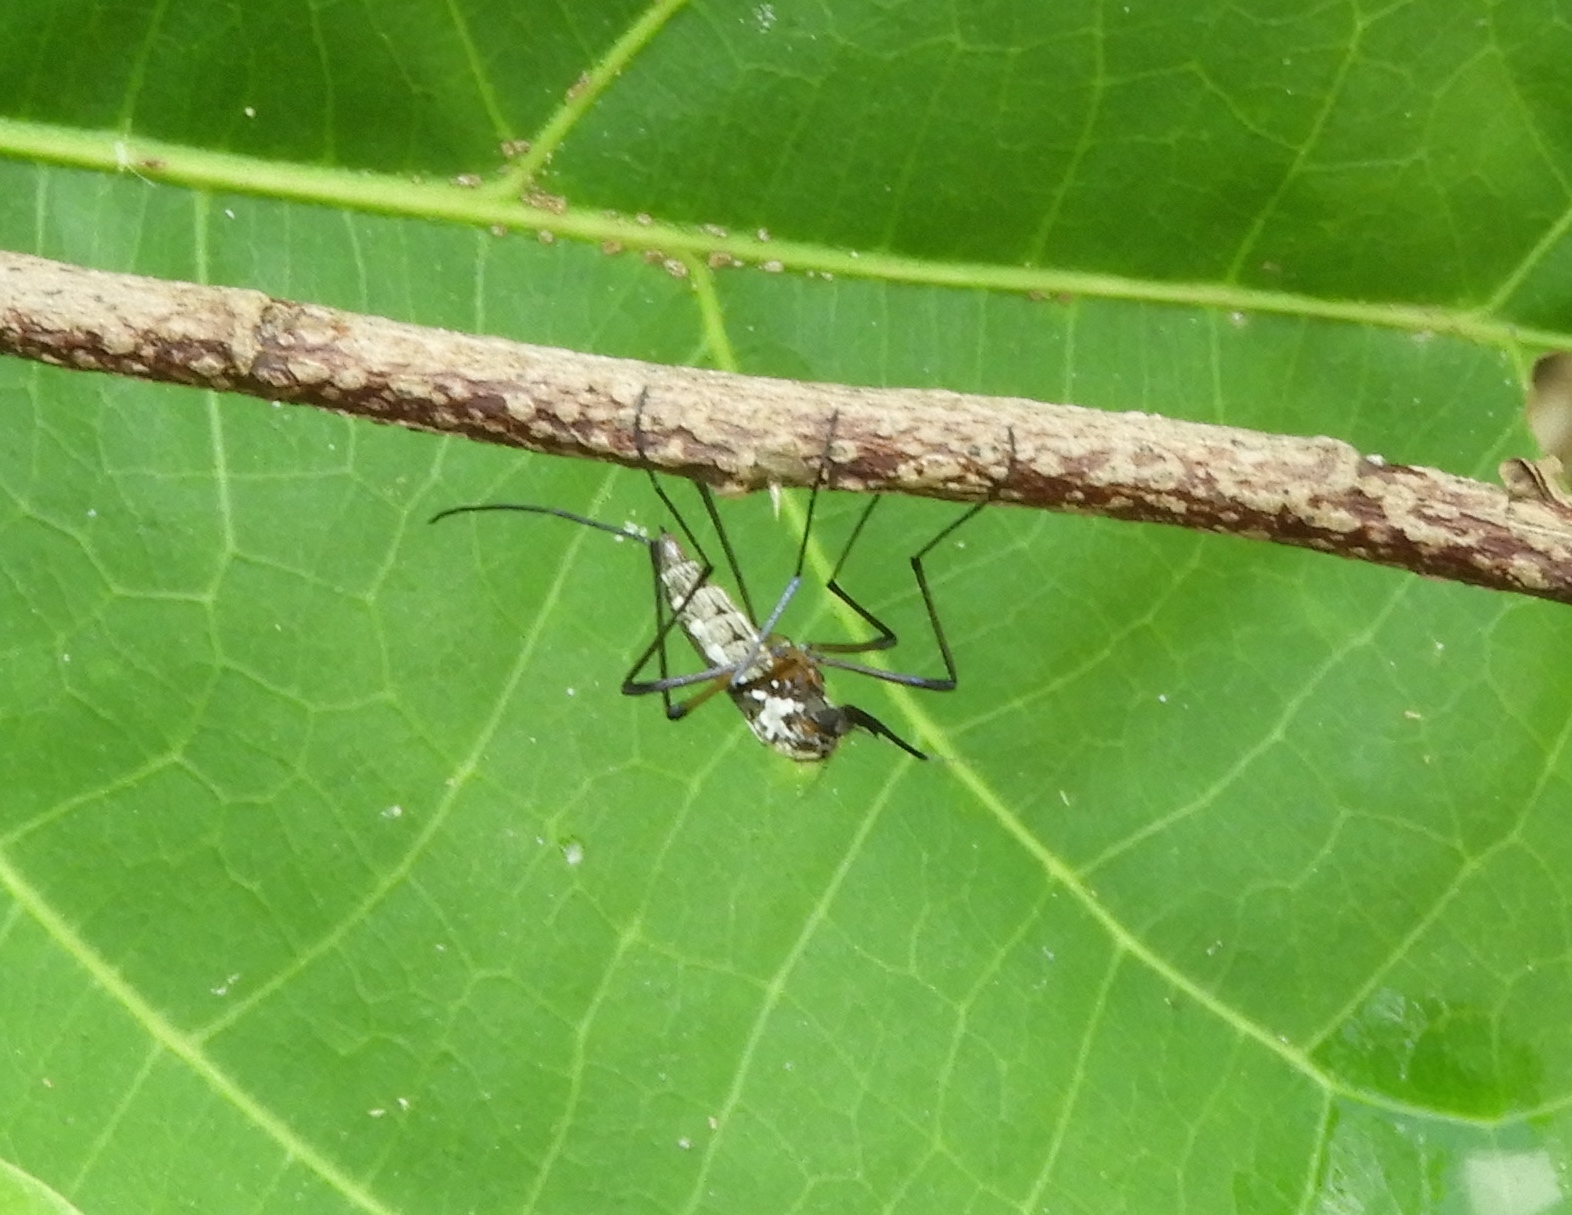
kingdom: Animalia
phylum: Arthropoda
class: Insecta
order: Diptera
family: Culicidae
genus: Psorophora
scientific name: Psorophora
